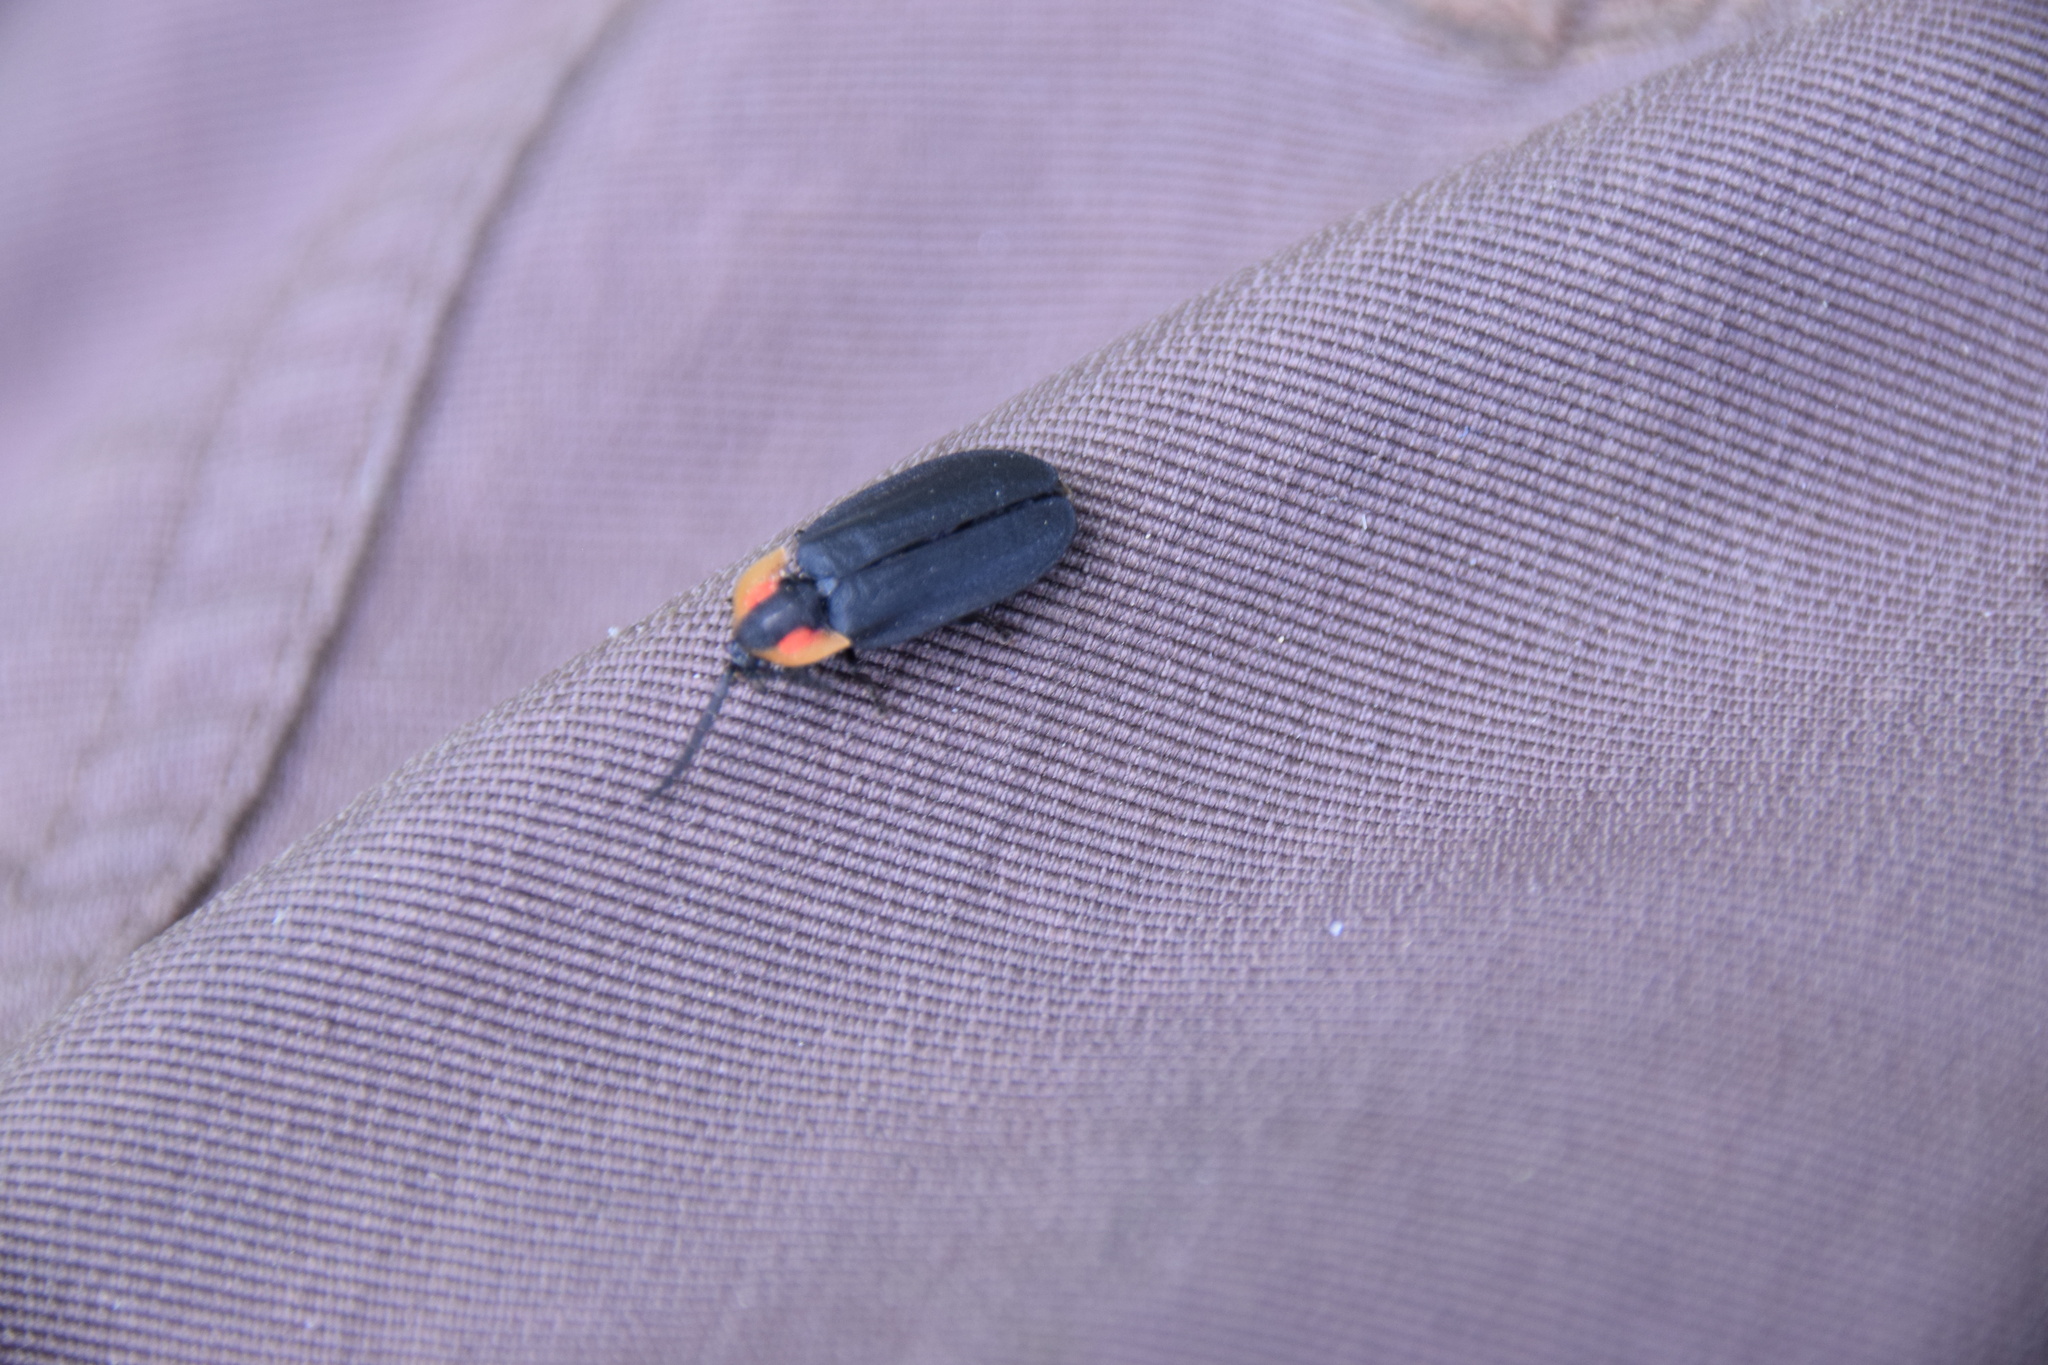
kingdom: Animalia
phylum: Arthropoda
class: Insecta
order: Coleoptera
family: Lampyridae
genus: Lucidota
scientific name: Lucidota atra
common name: Black firefly
